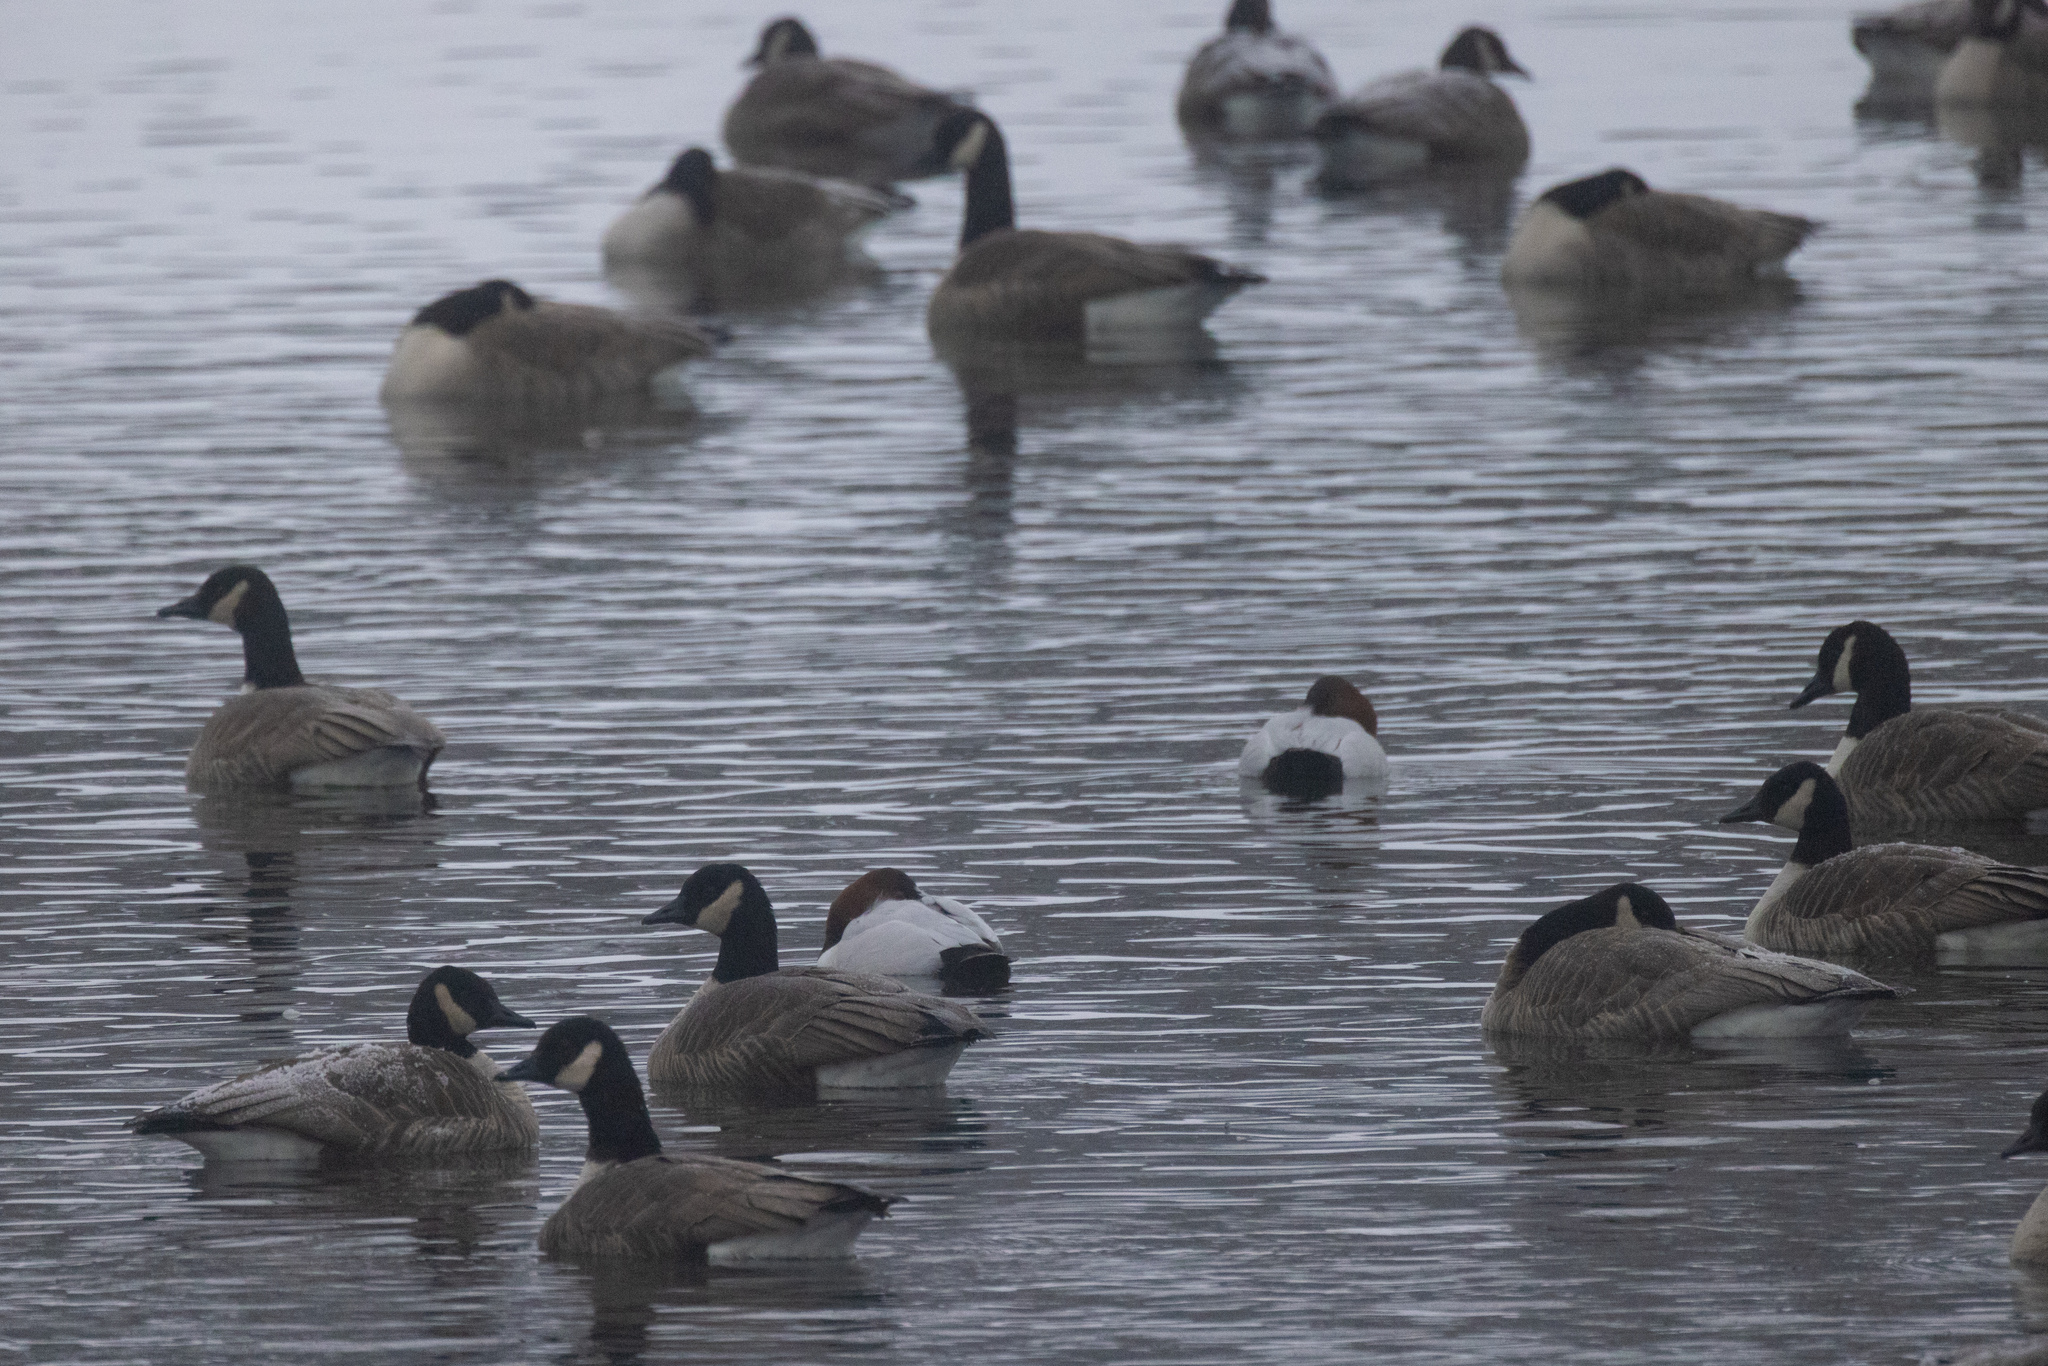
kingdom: Animalia
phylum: Chordata
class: Aves
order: Anseriformes
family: Anatidae
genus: Aythya
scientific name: Aythya valisineria
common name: Canvasback
